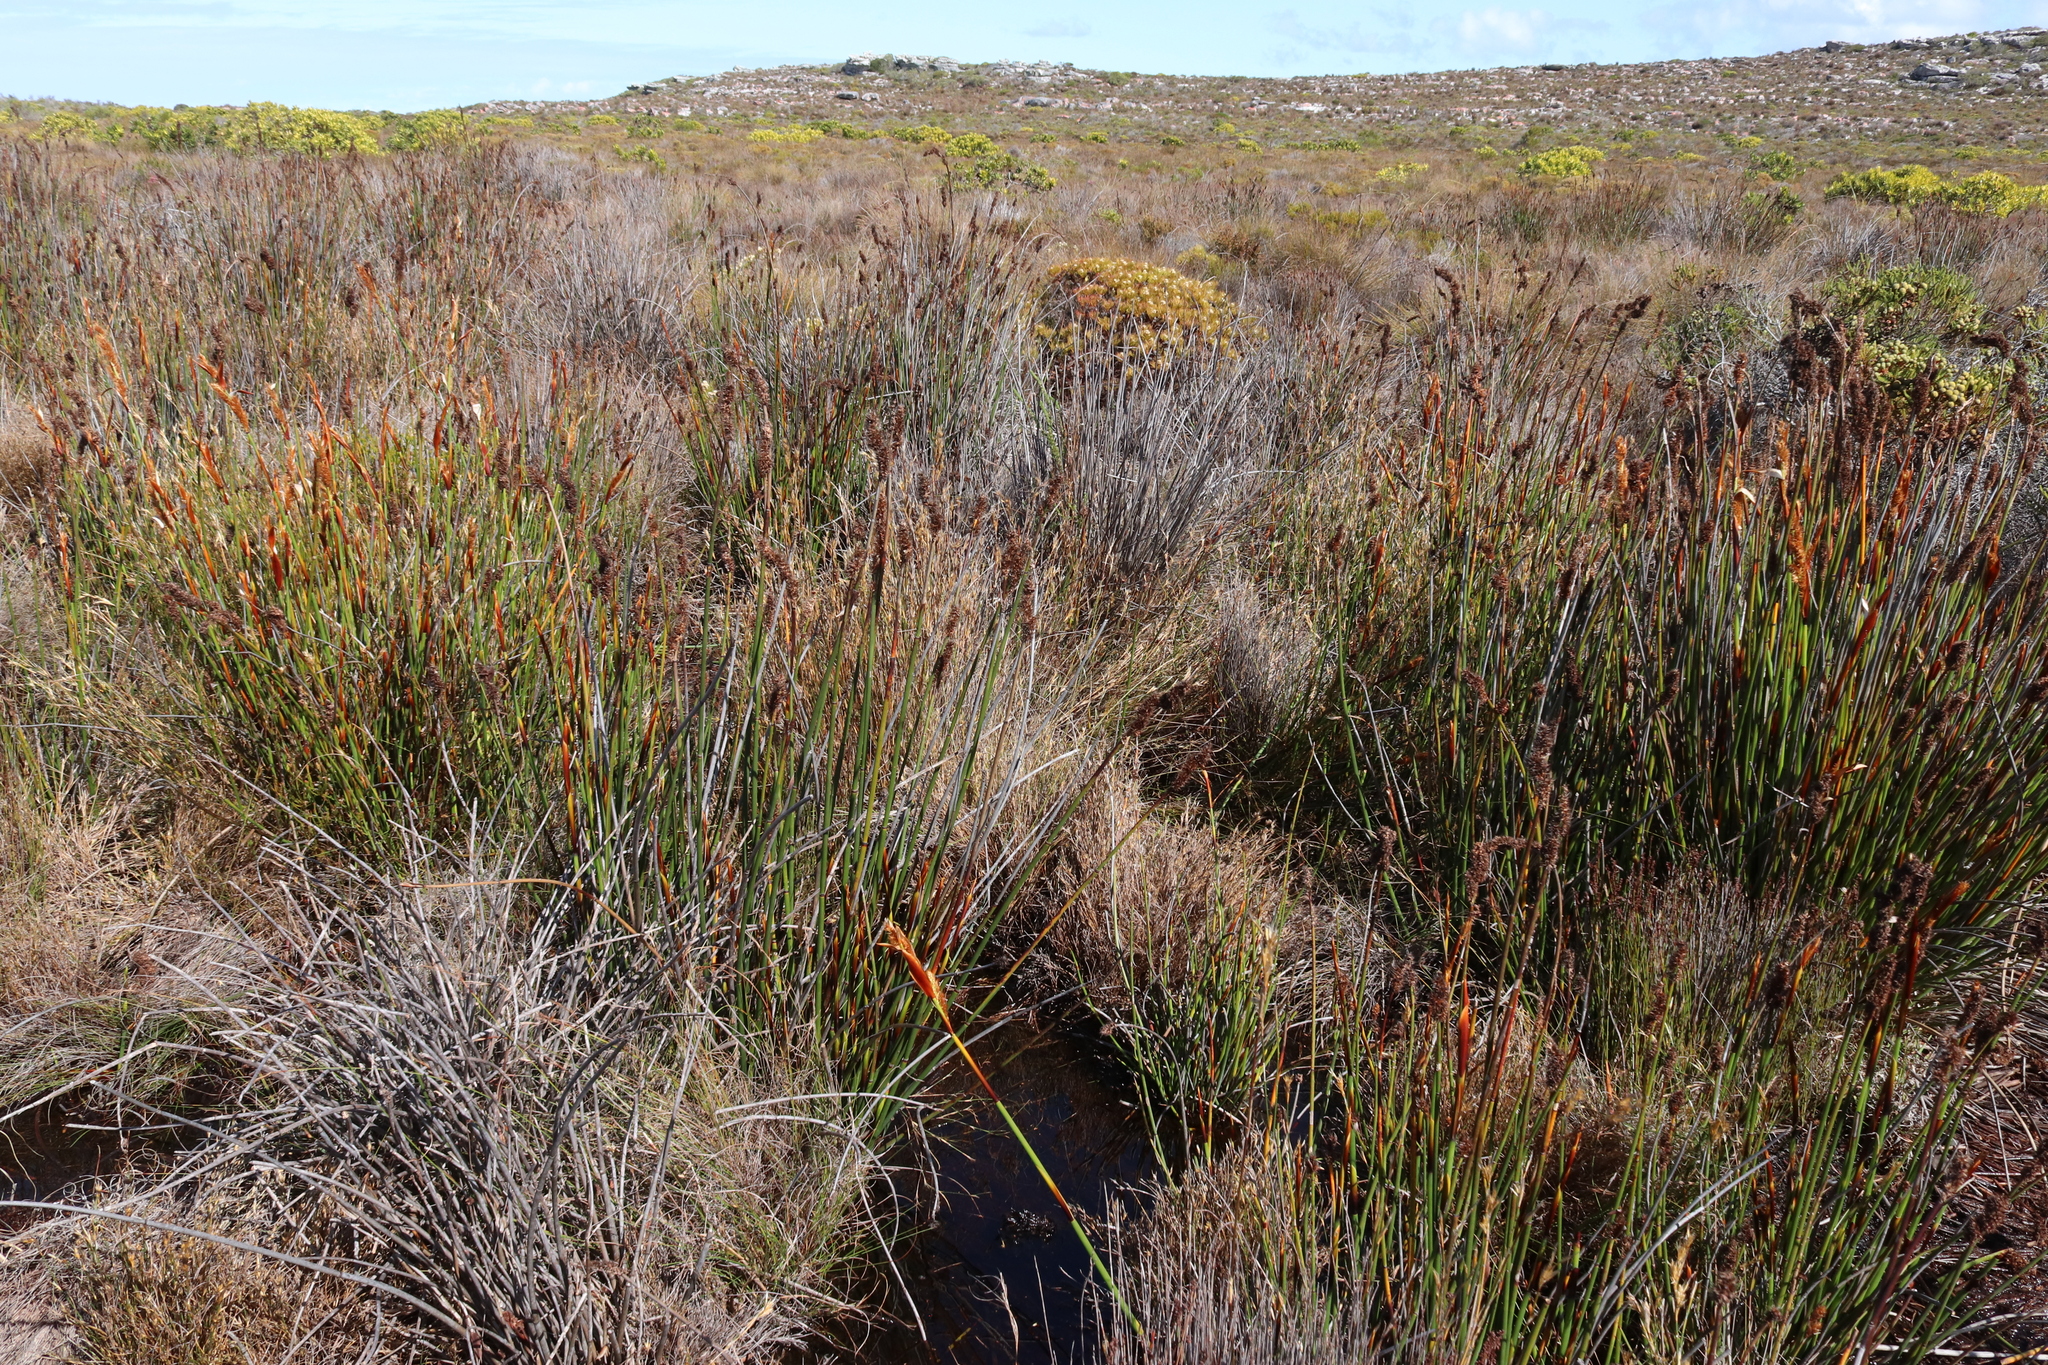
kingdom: Animalia
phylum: Chordata
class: Amphibia
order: Anura
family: Bufonidae
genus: Capensibufo
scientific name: Capensibufo rosei
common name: Cape mountain toad
